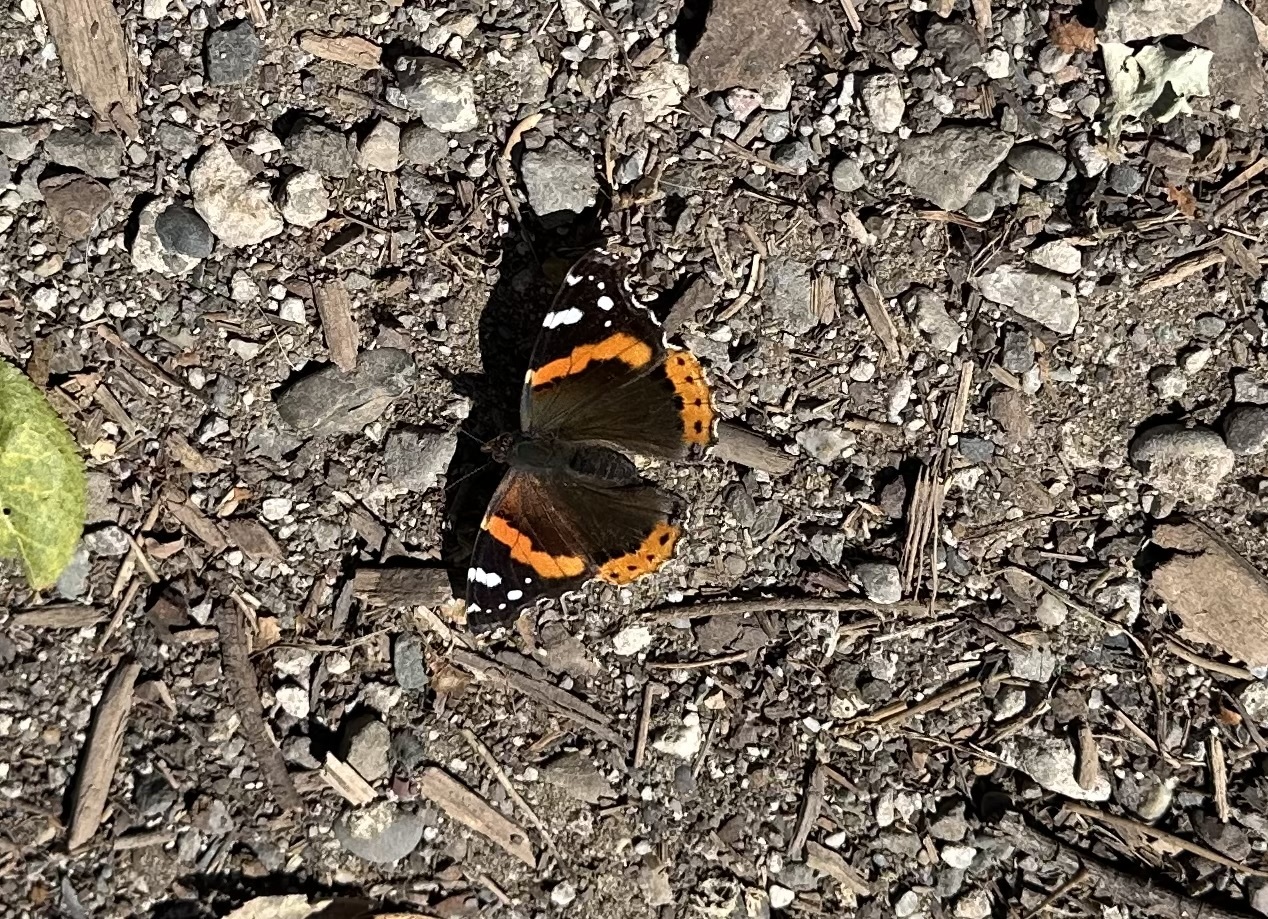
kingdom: Animalia
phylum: Arthropoda
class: Insecta
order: Lepidoptera
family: Nymphalidae
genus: Vanessa
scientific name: Vanessa atalanta
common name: Red admiral
